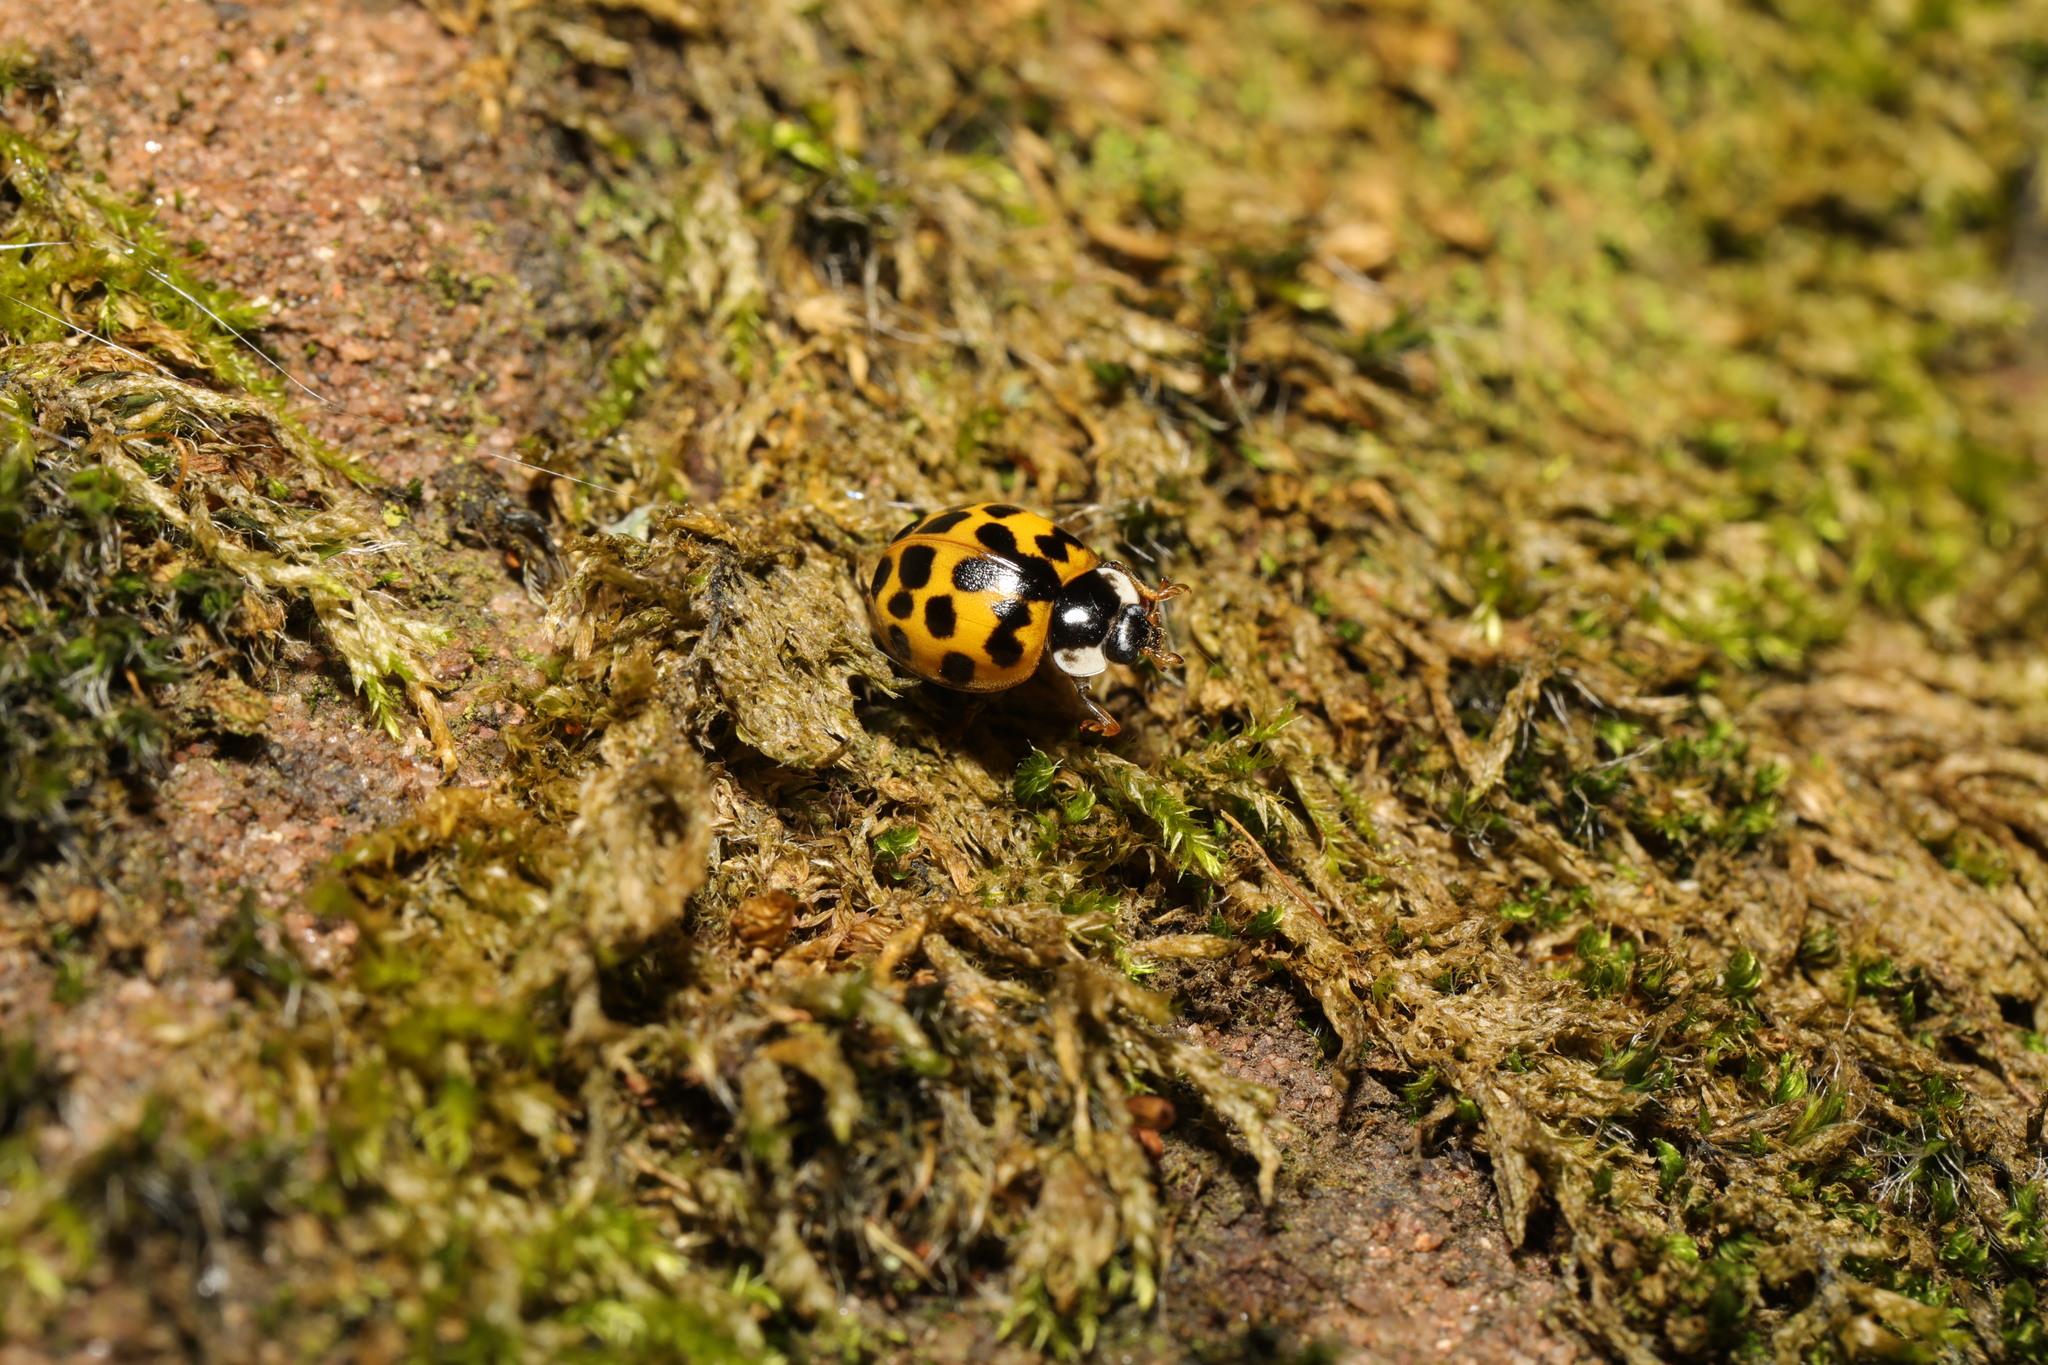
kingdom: Animalia
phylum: Arthropoda
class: Insecta
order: Coleoptera
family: Coccinellidae
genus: Harmonia
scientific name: Harmonia axyridis
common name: Harlequin ladybird
